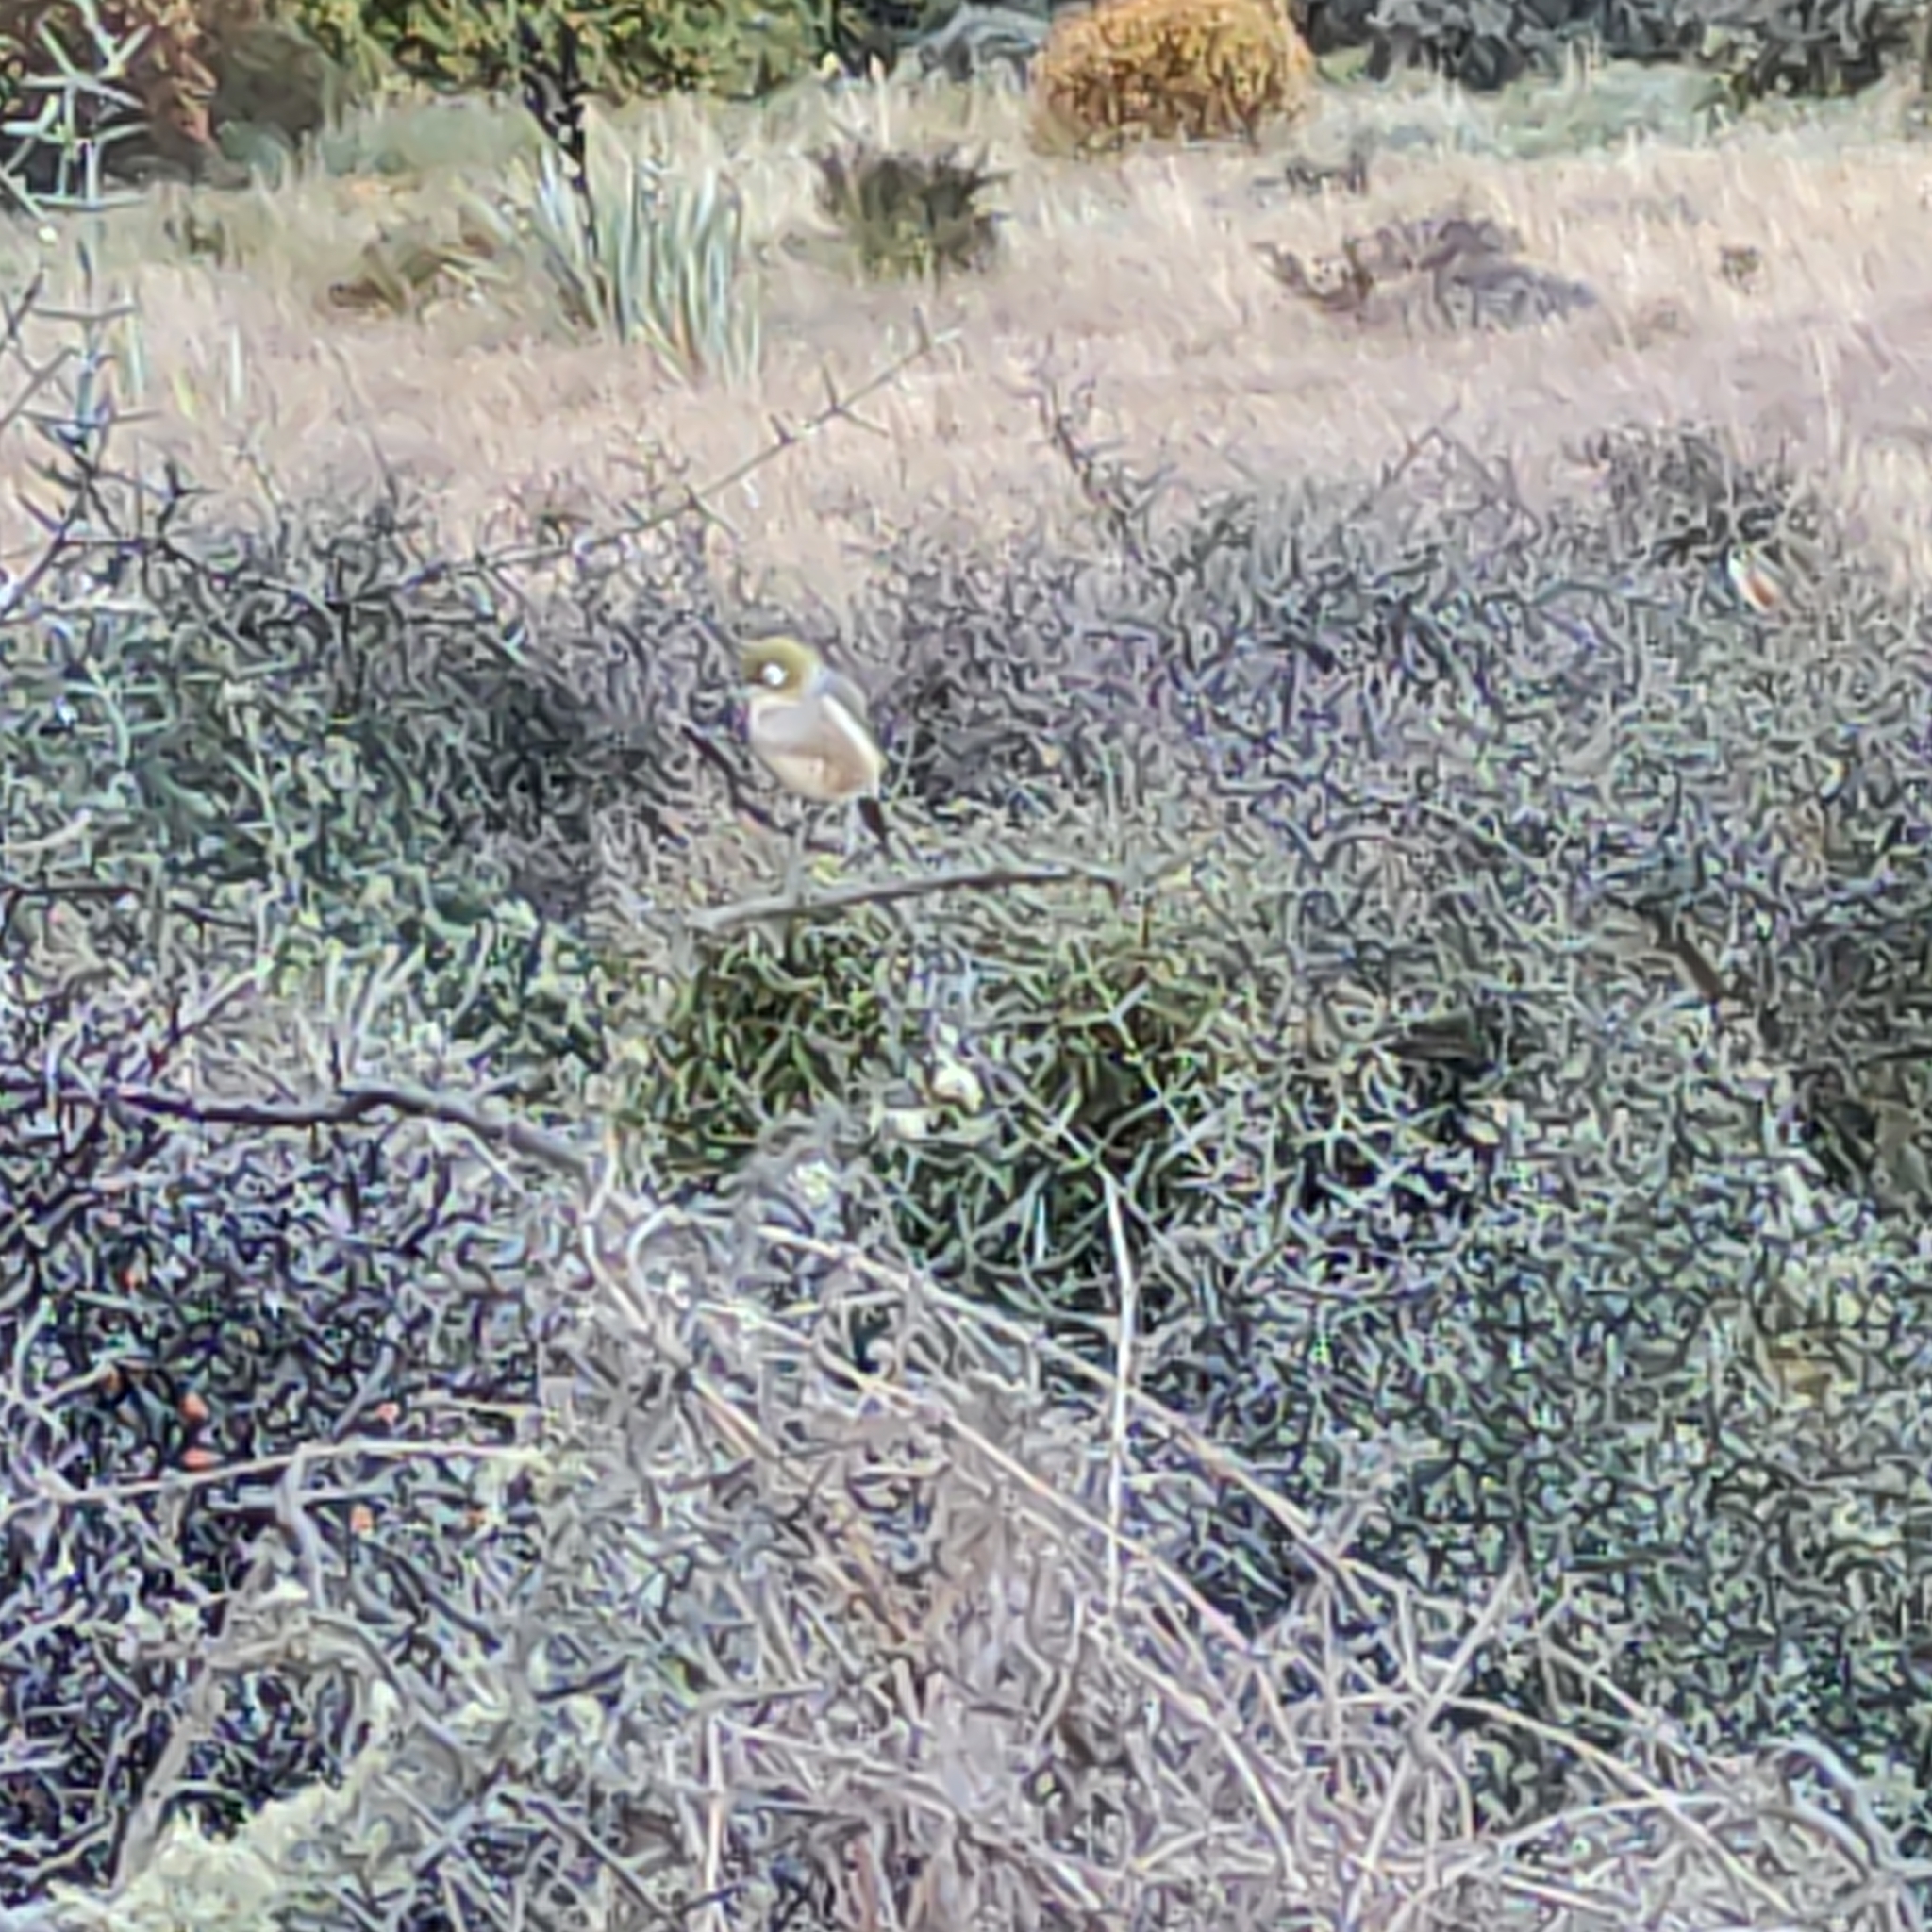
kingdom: Animalia
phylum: Chordata
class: Aves
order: Passeriformes
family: Zosteropidae
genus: Zosterops
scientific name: Zosterops lateralis
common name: Silvereye
